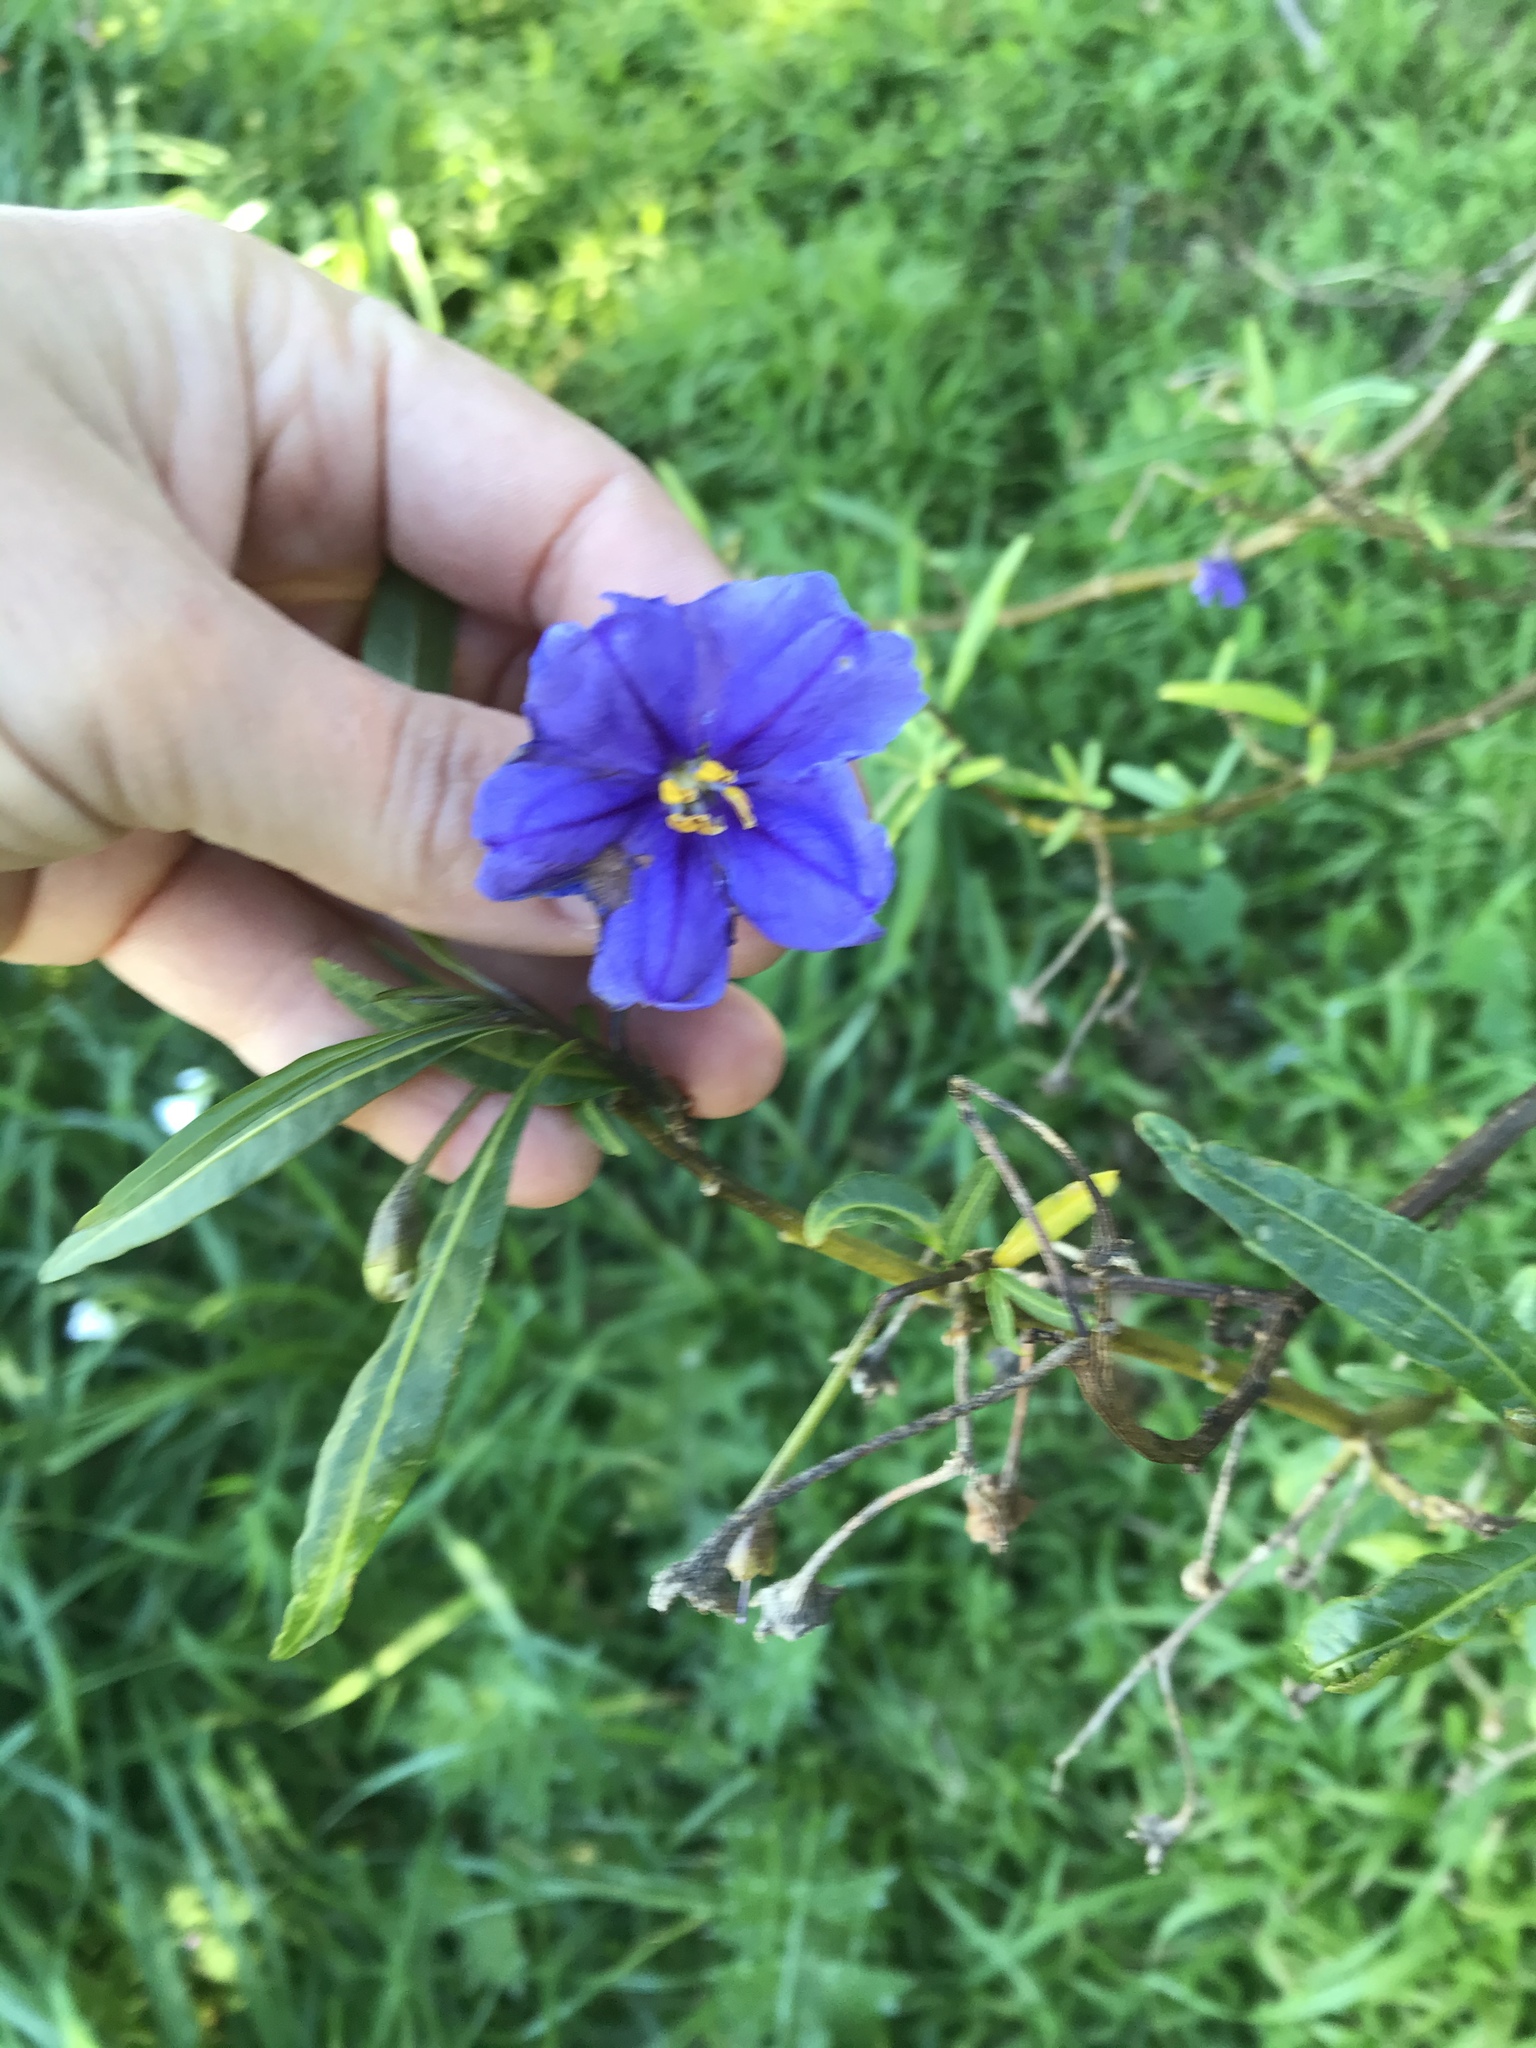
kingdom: Plantae
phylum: Tracheophyta
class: Magnoliopsida
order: Solanales
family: Solanaceae
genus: Solanum
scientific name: Solanum laciniatum
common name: Kangaroo-apple
